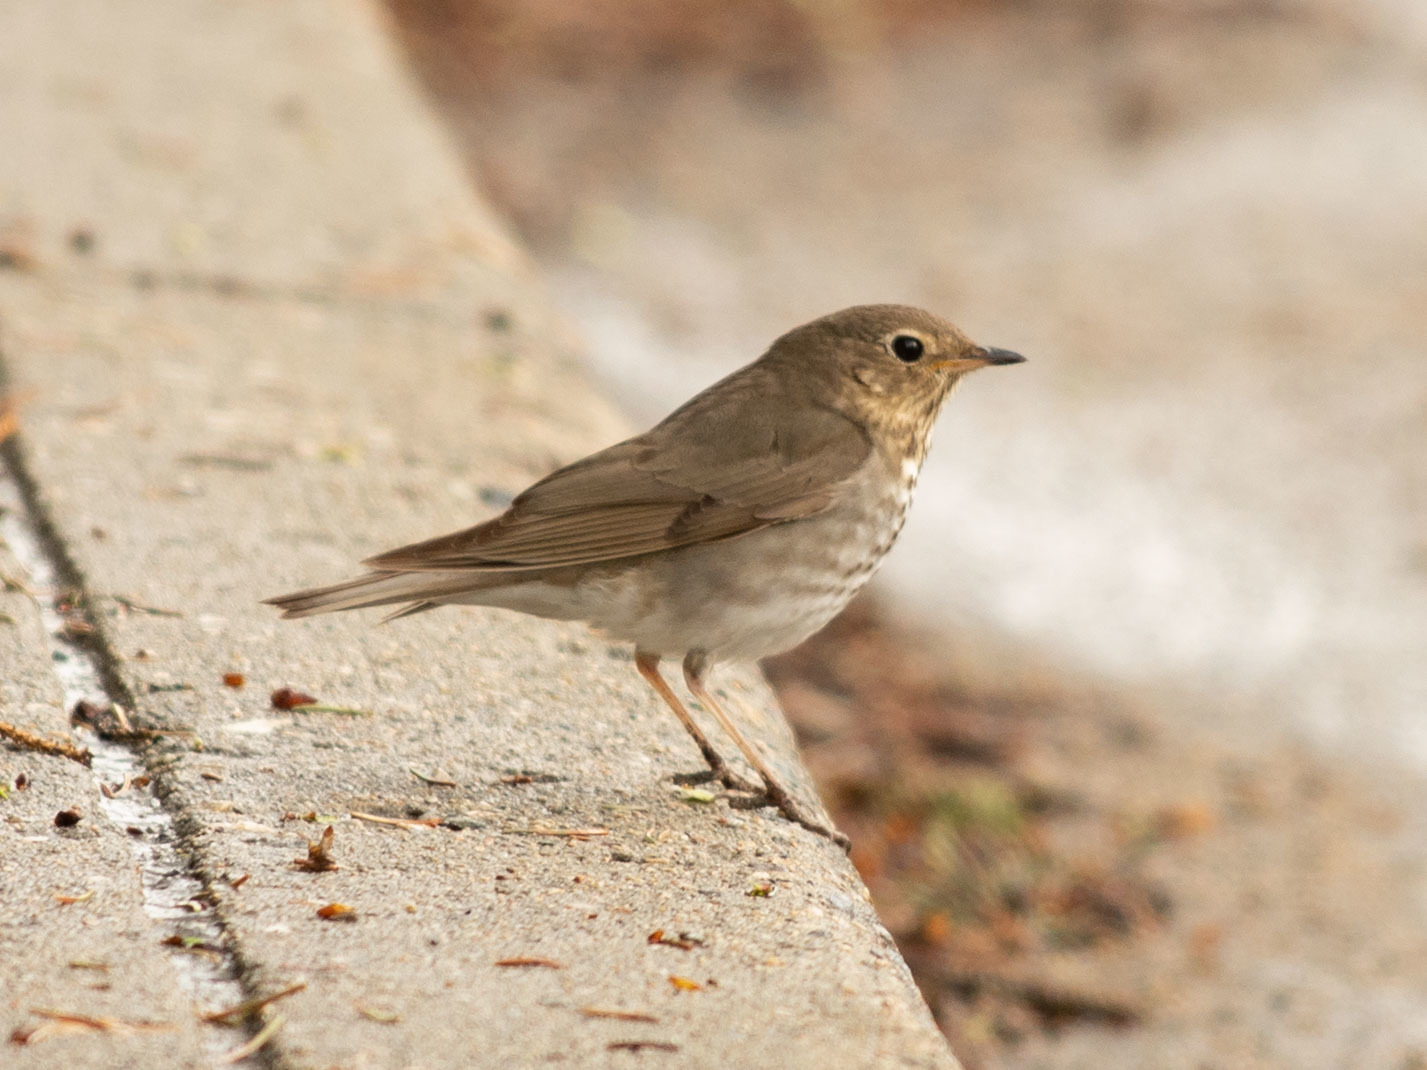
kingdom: Animalia
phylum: Chordata
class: Aves
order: Passeriformes
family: Turdidae
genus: Catharus
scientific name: Catharus ustulatus
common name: Swainson's thrush
